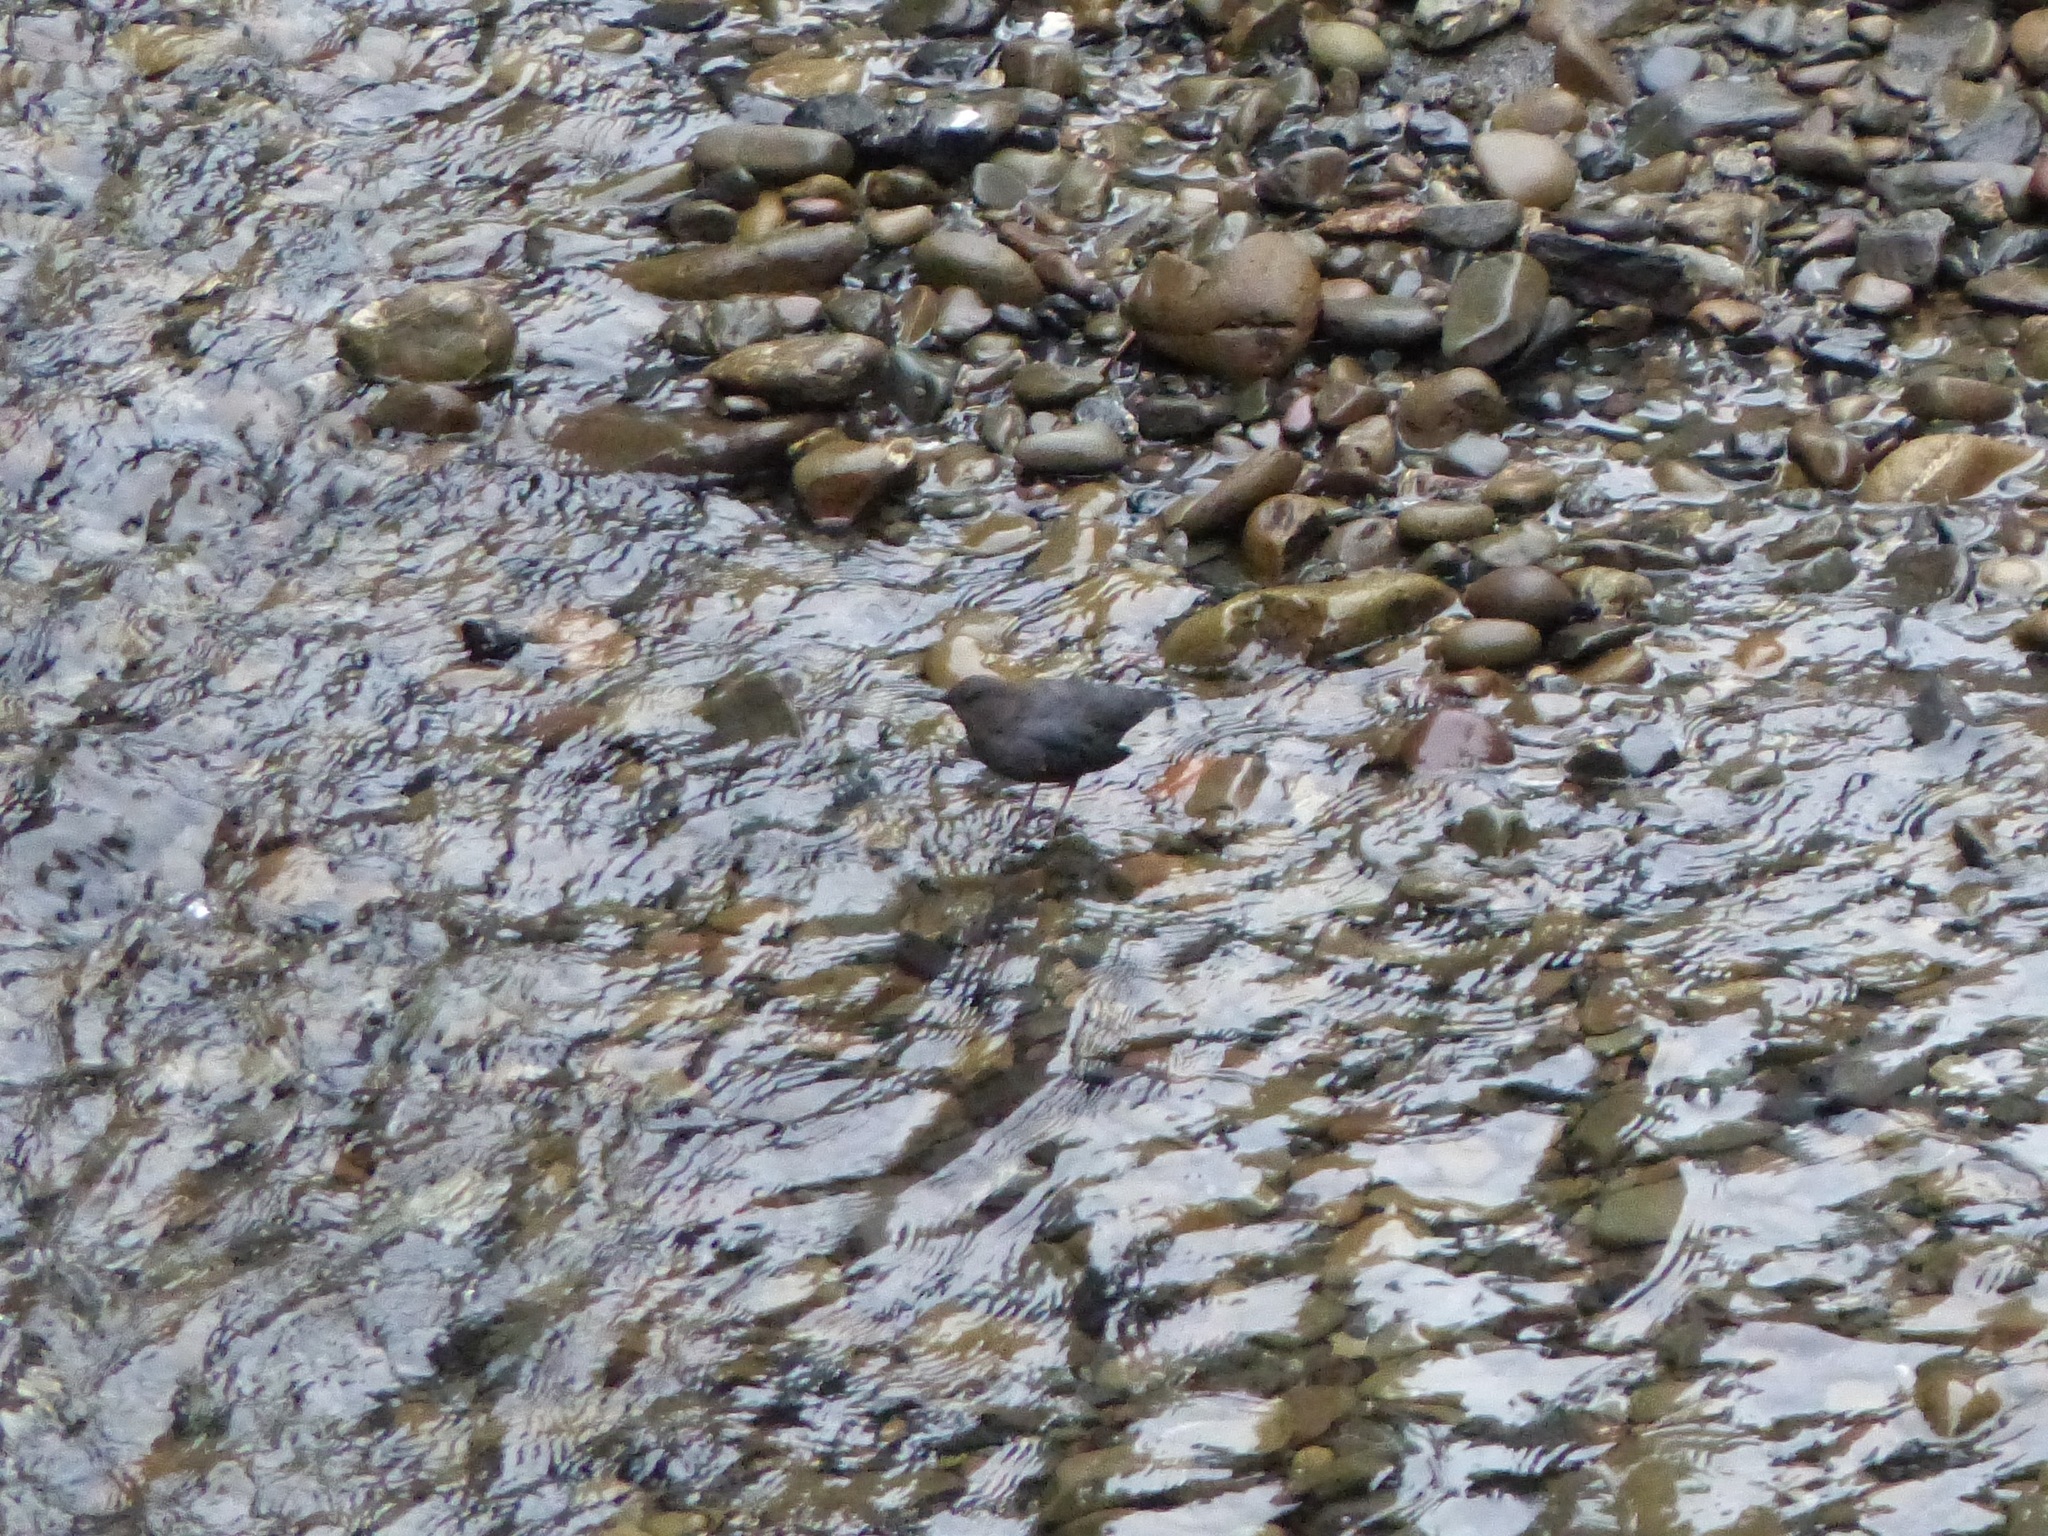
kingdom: Animalia
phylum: Chordata
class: Aves
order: Passeriformes
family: Cinclidae
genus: Cinclus
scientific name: Cinclus mexicanus
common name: American dipper
